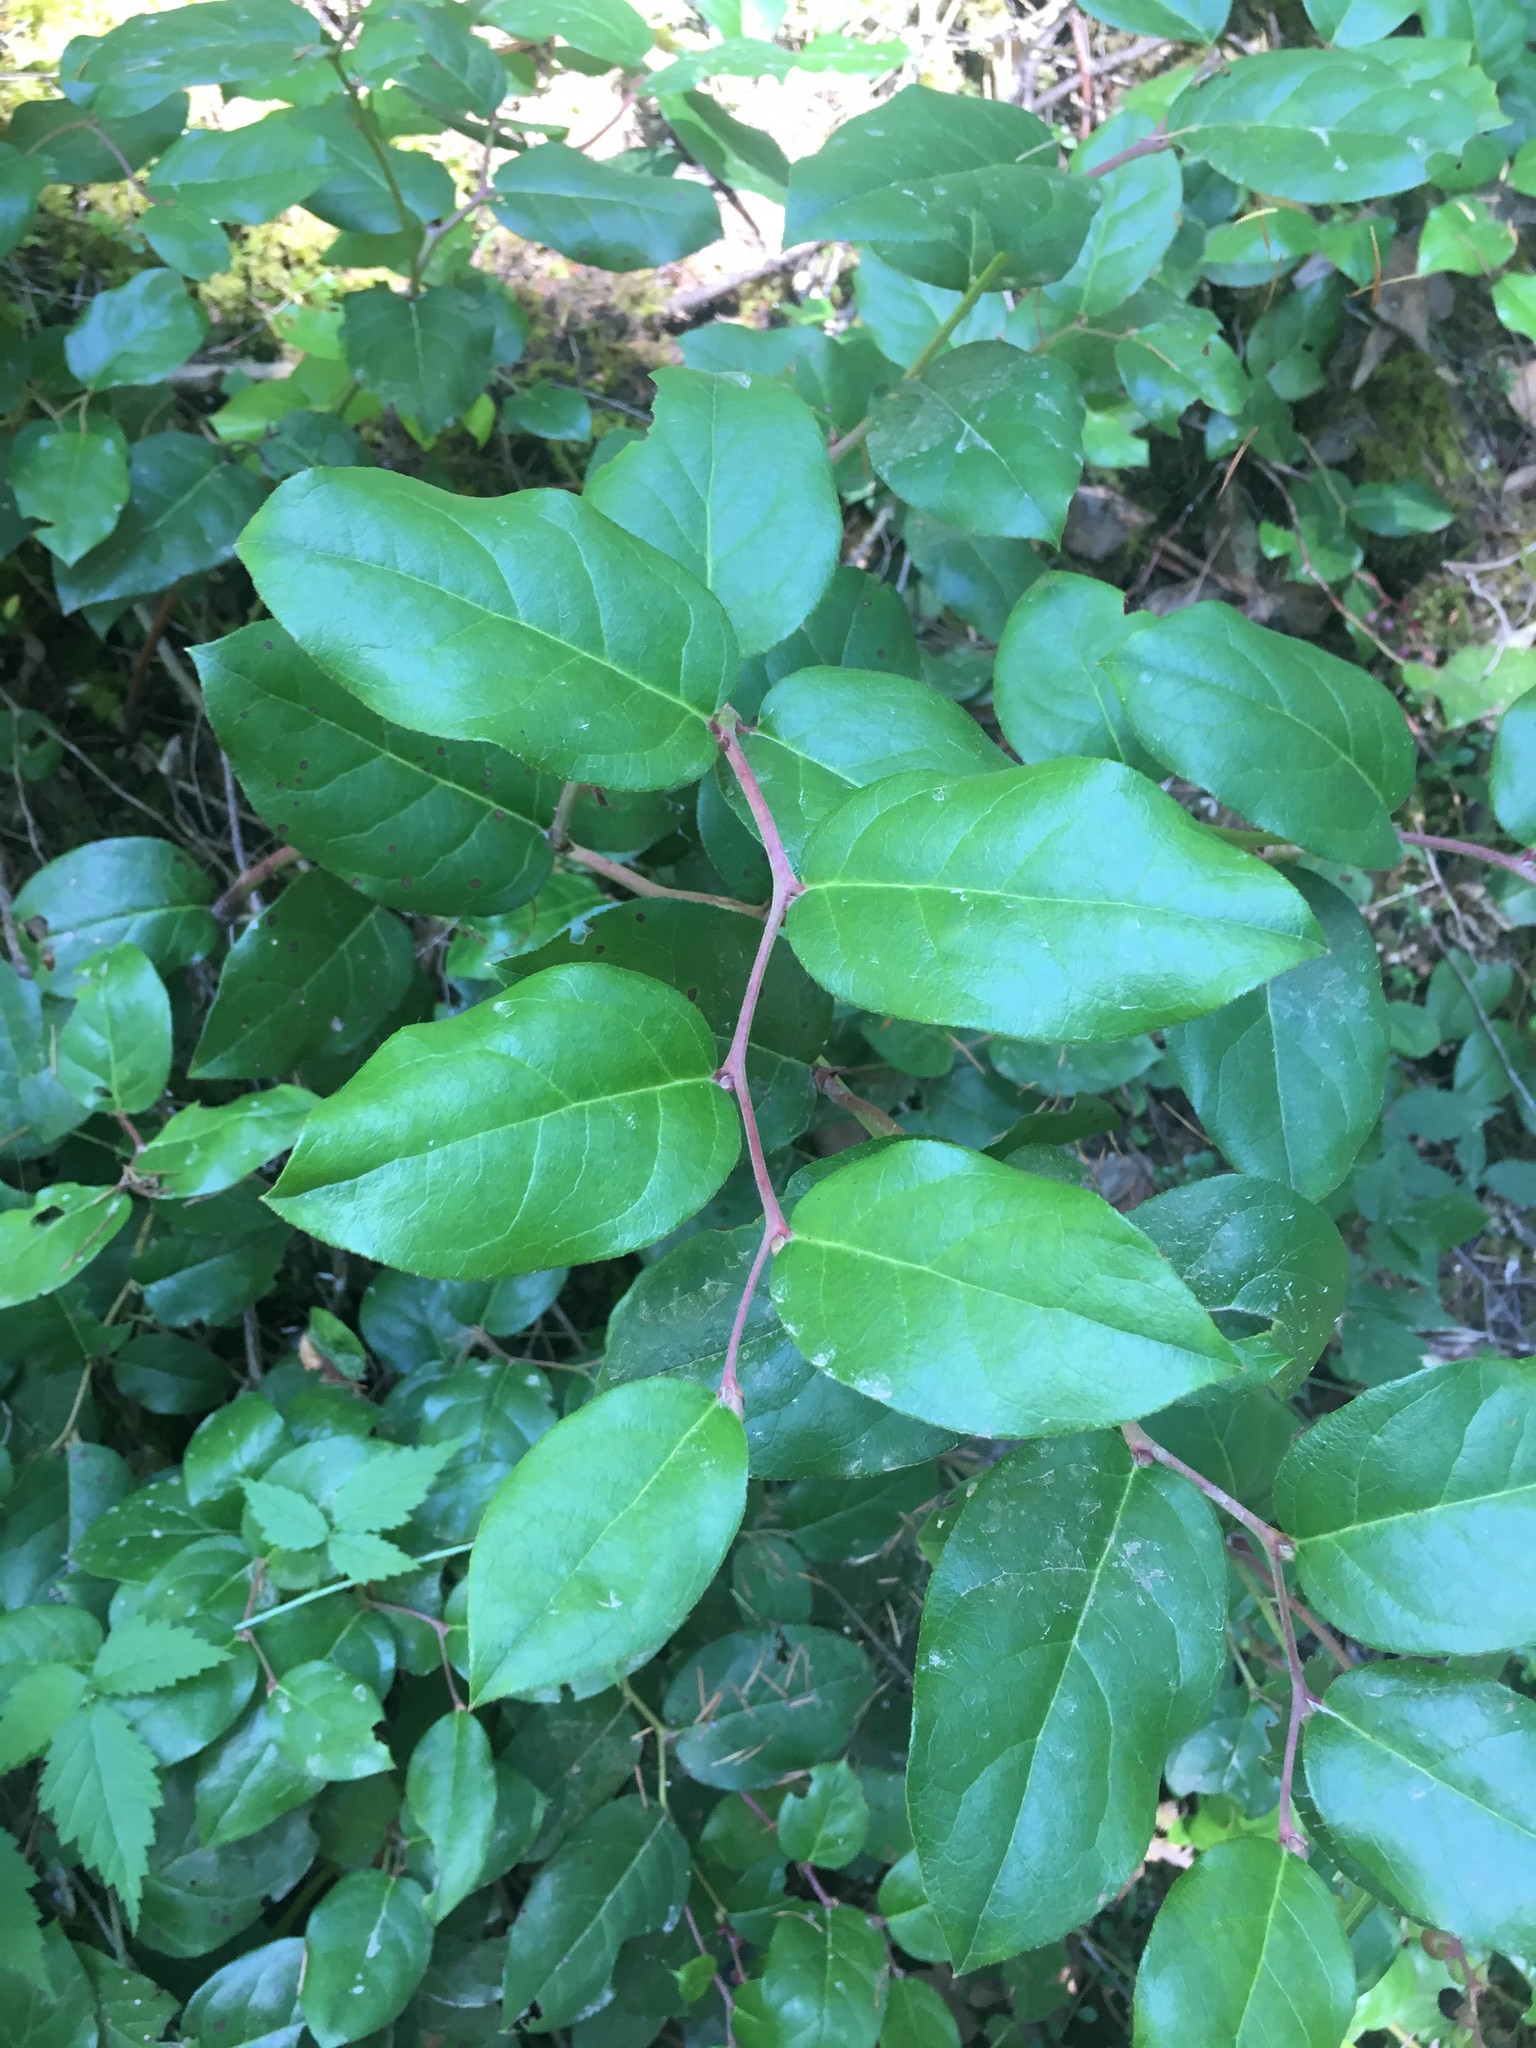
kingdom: Plantae
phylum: Tracheophyta
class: Magnoliopsida
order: Ericales
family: Ericaceae
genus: Gaultheria
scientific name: Gaultheria shallon
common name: Shallon
